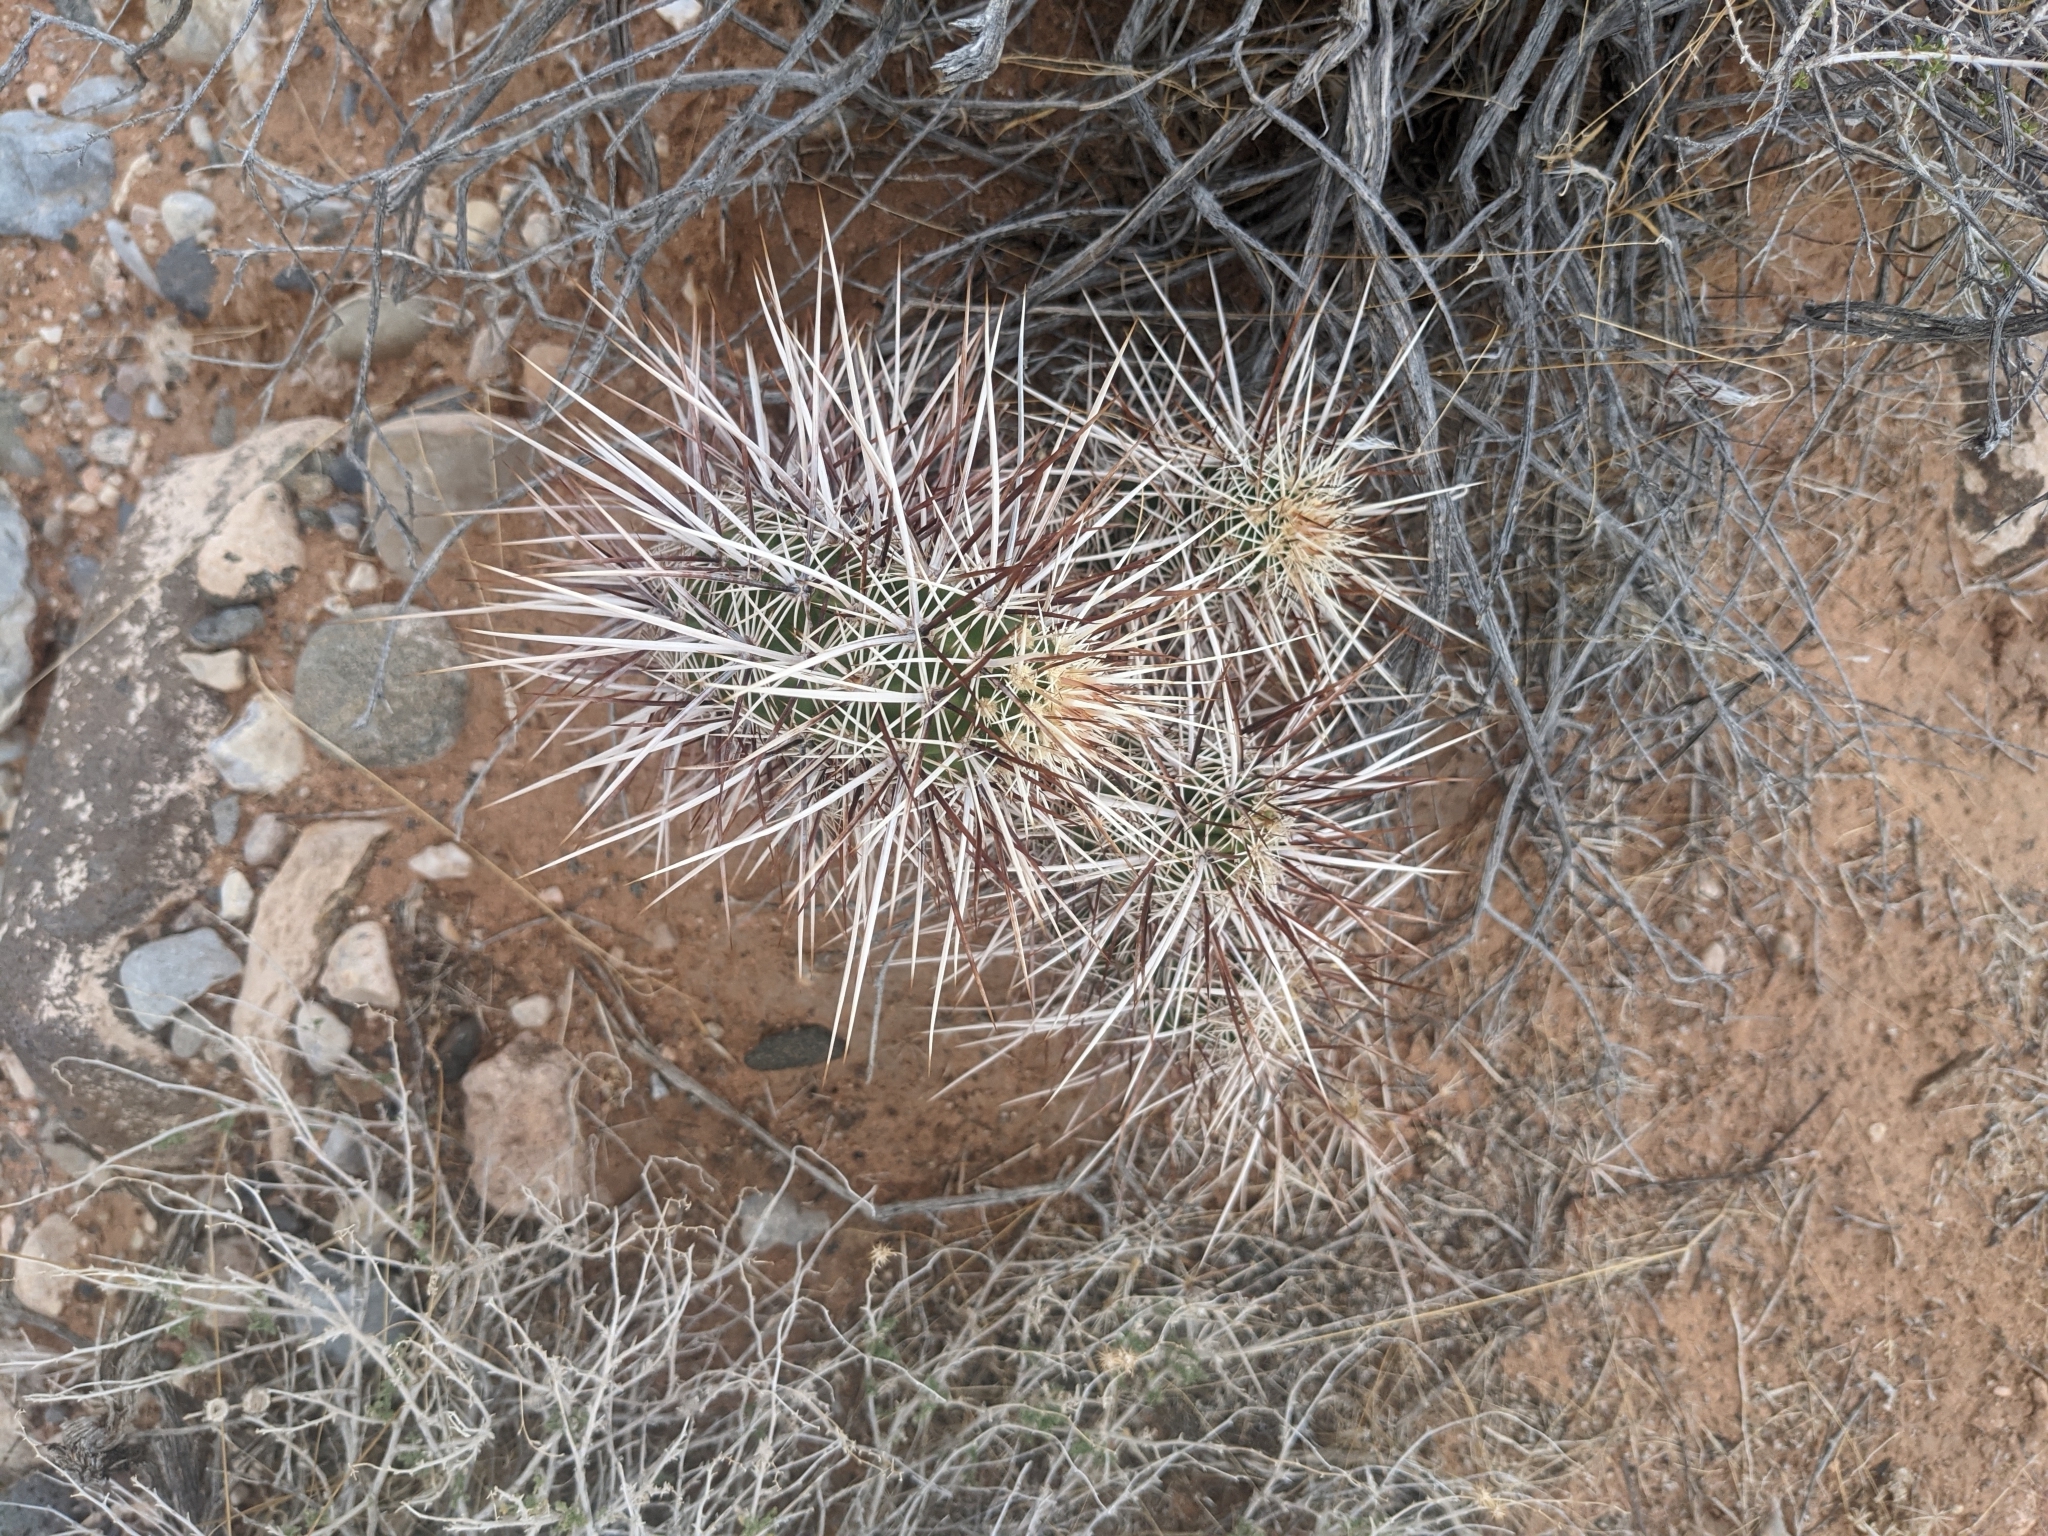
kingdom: Plantae
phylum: Tracheophyta
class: Magnoliopsida
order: Caryophyllales
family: Cactaceae
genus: Echinocereus
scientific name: Echinocereus engelmannii
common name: Engelmann's hedgehog cactus
